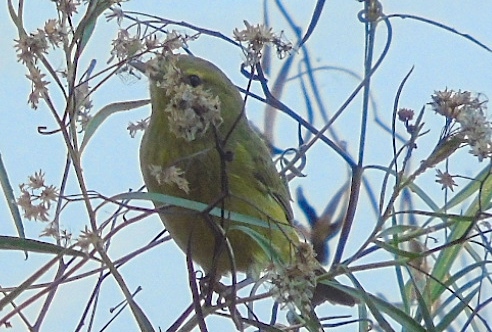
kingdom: Animalia
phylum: Chordata
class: Aves
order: Passeriformes
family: Parulidae
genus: Leiothlypis
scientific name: Leiothlypis celata
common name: Orange-crowned warbler
